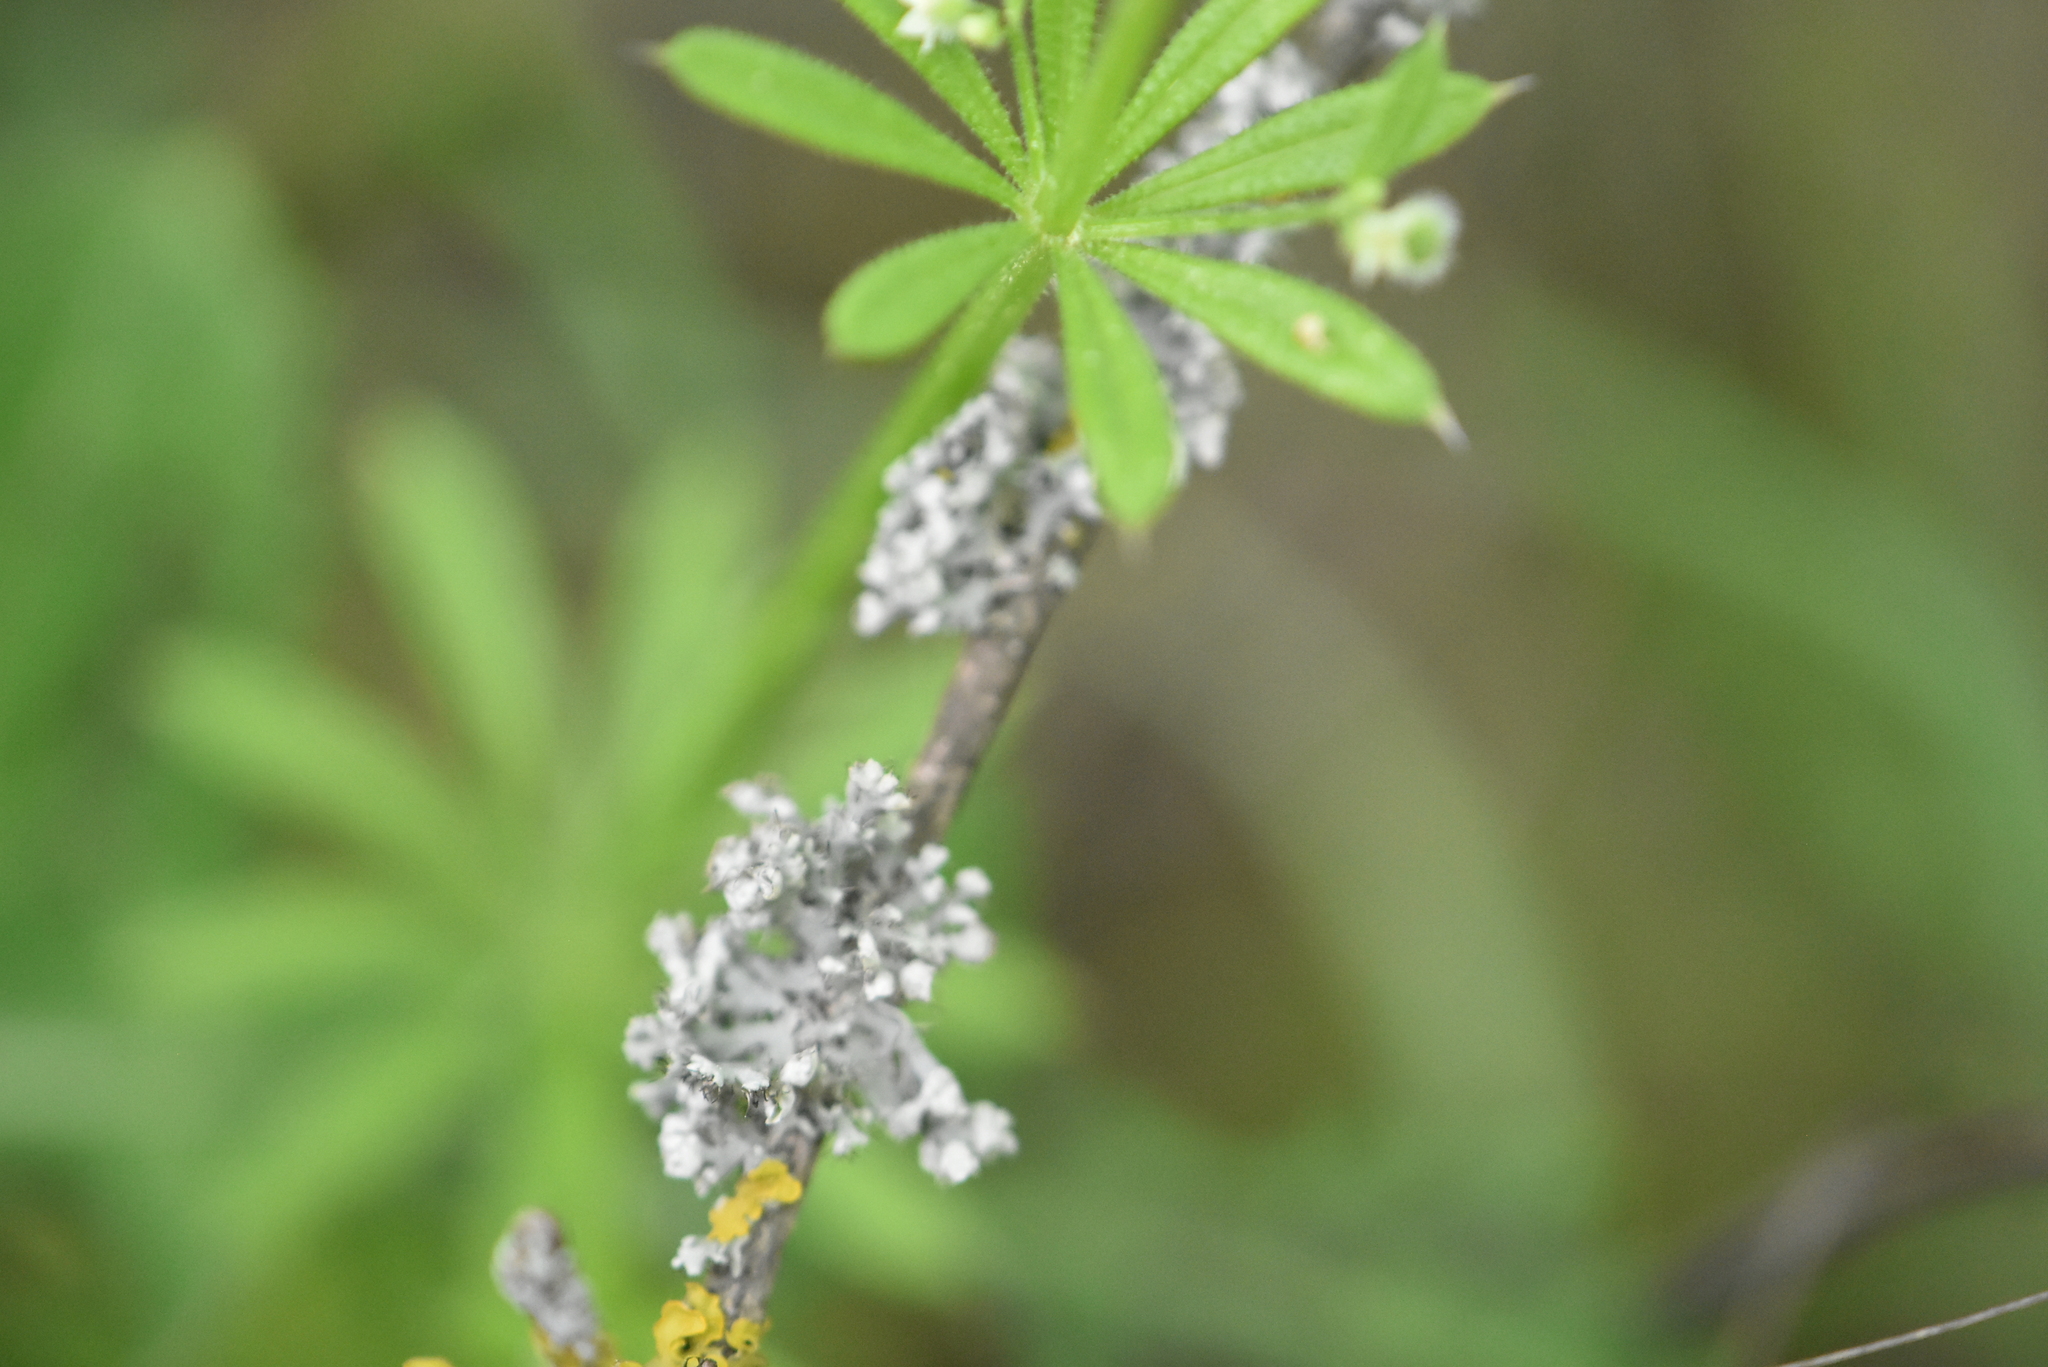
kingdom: Fungi
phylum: Ascomycota
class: Lecanoromycetes
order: Caliciales
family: Physciaceae
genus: Physcia
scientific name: Physcia adscendens
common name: Hooded rosette lichen
